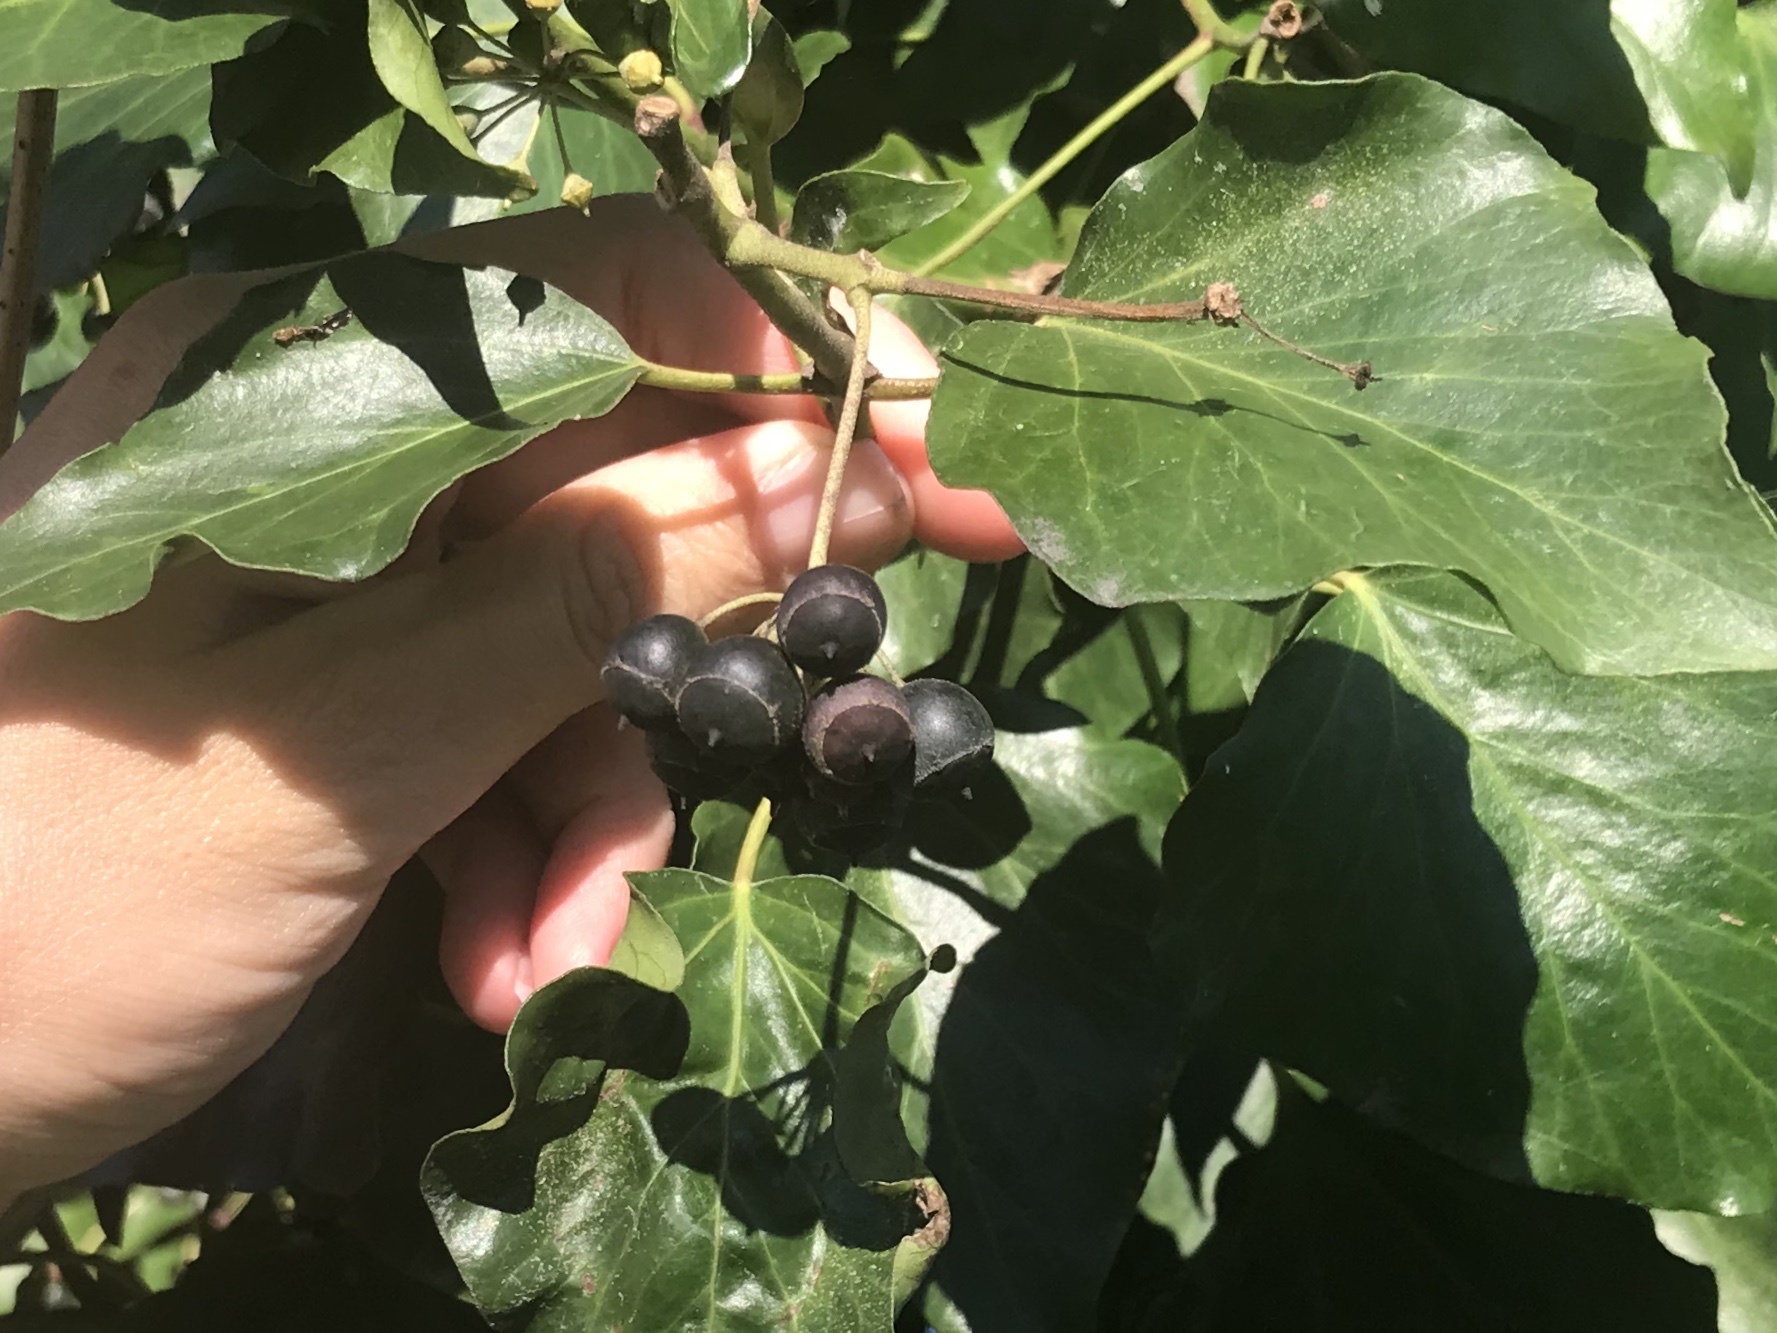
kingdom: Plantae
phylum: Tracheophyta
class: Magnoliopsida
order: Apiales
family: Araliaceae
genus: Hedera
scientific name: Hedera helix
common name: Ivy
